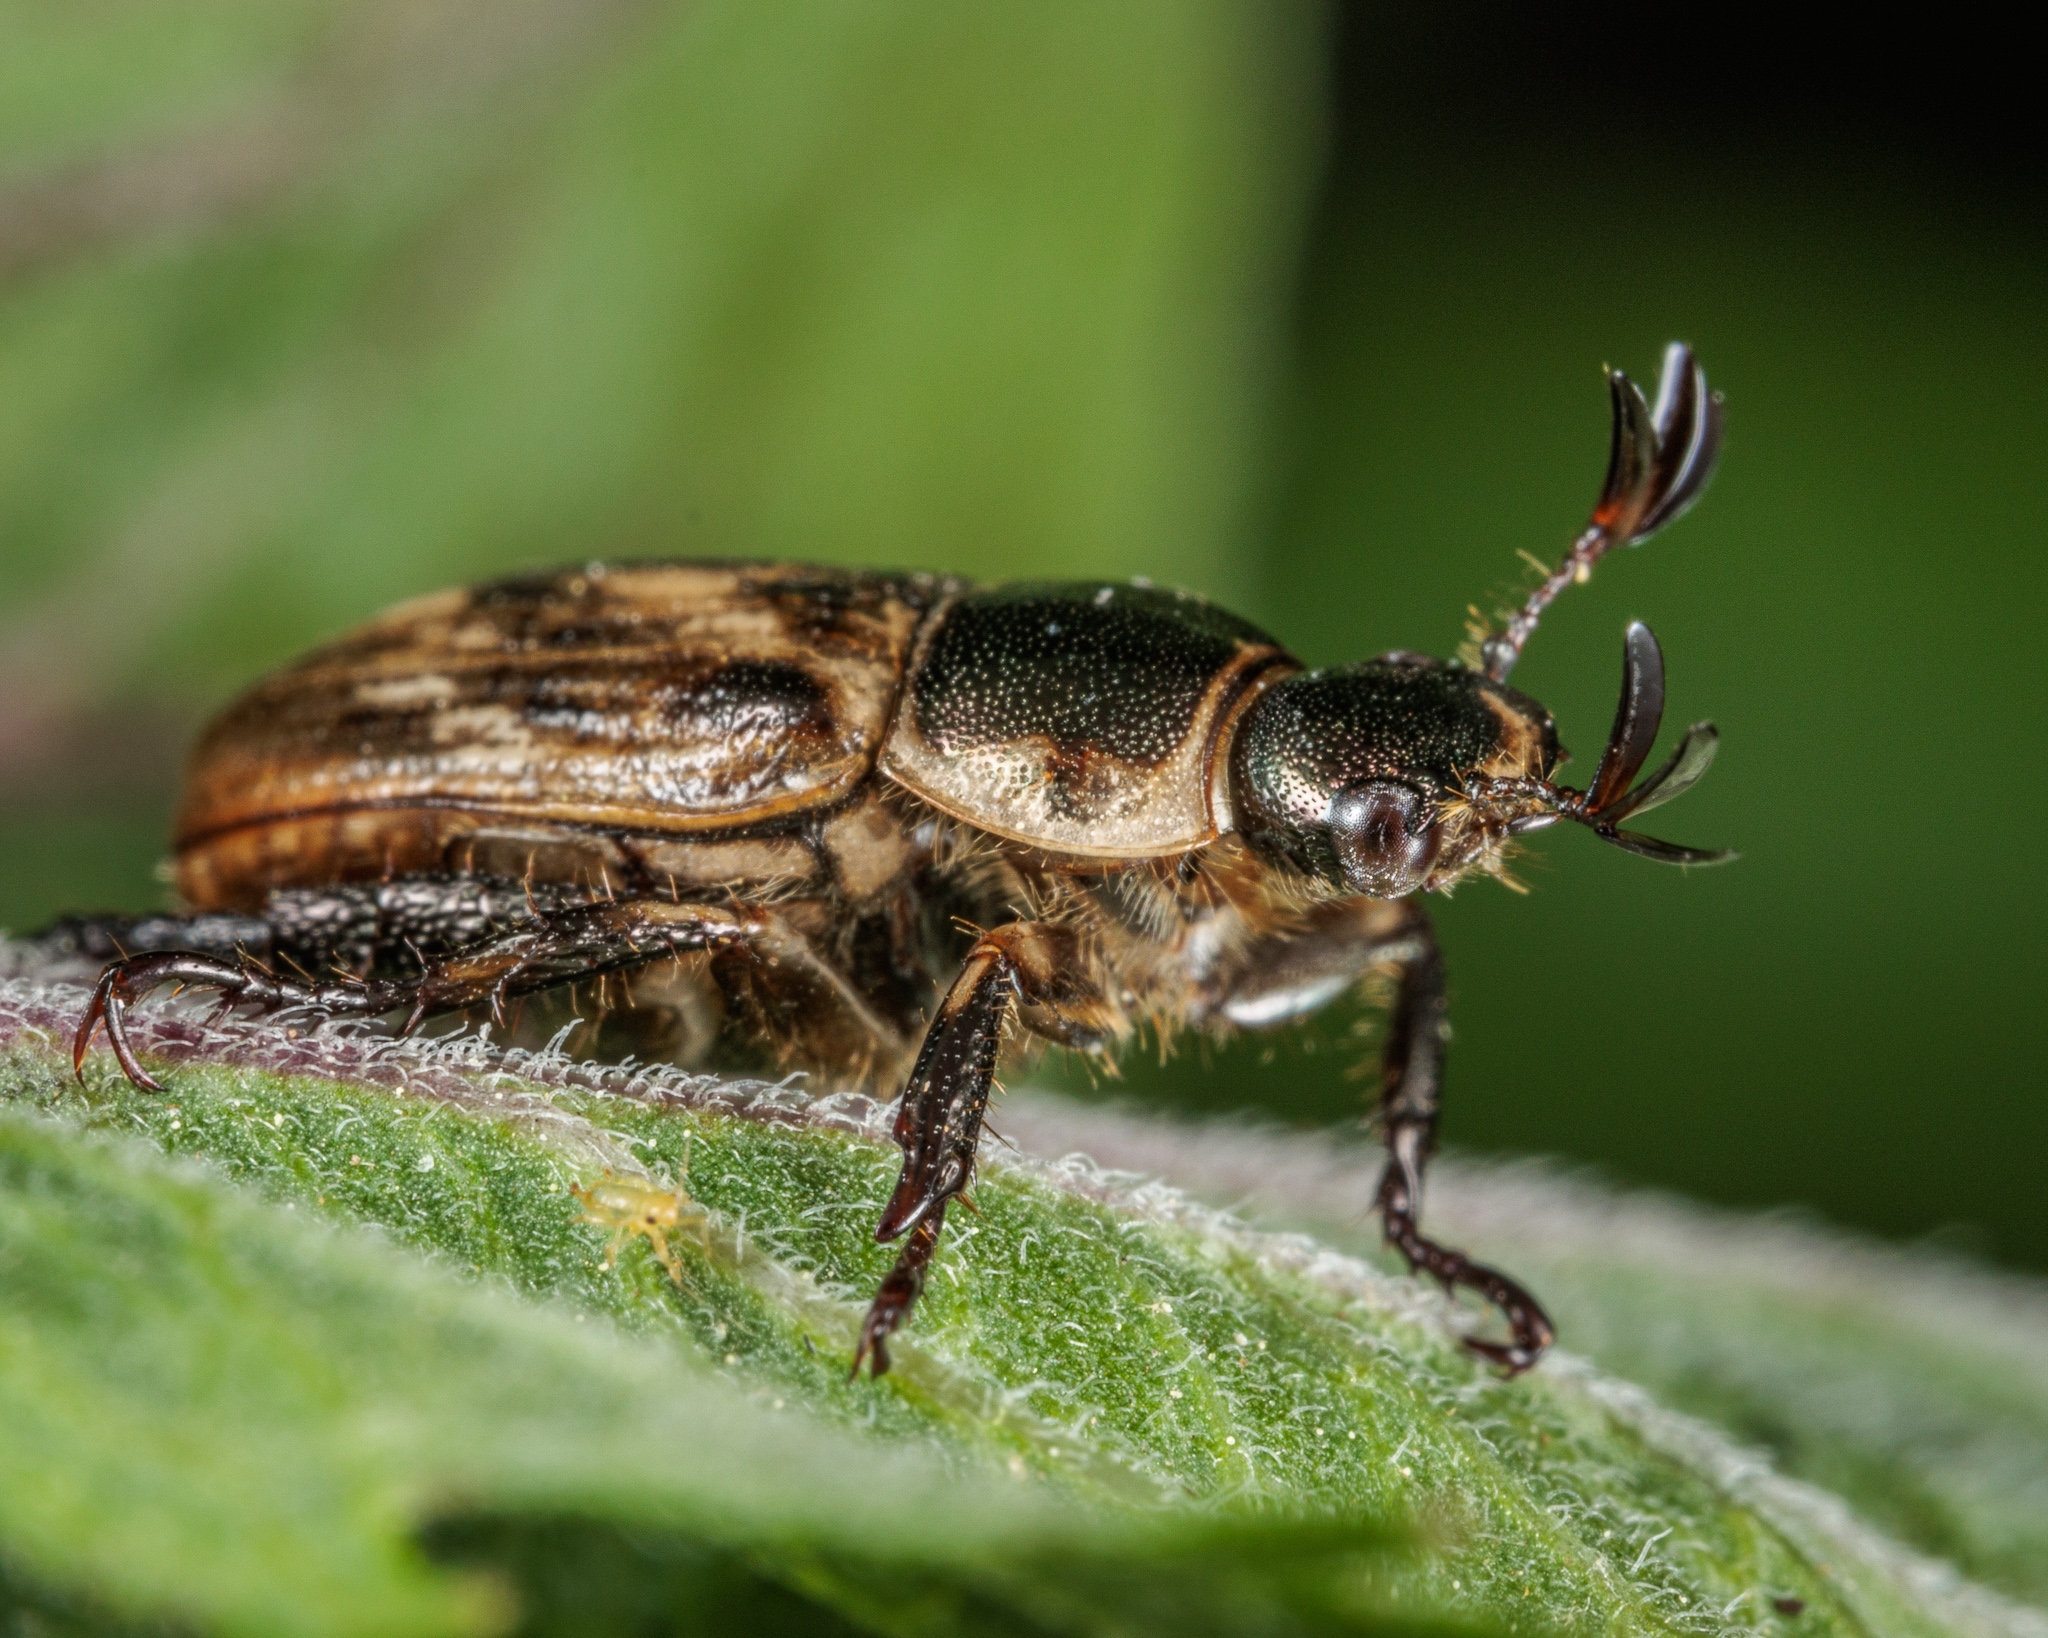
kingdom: Animalia
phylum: Arthropoda
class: Insecta
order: Coleoptera
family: Scarabaeidae
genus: Exomala
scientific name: Exomala orientalis
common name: Oriental beetle
